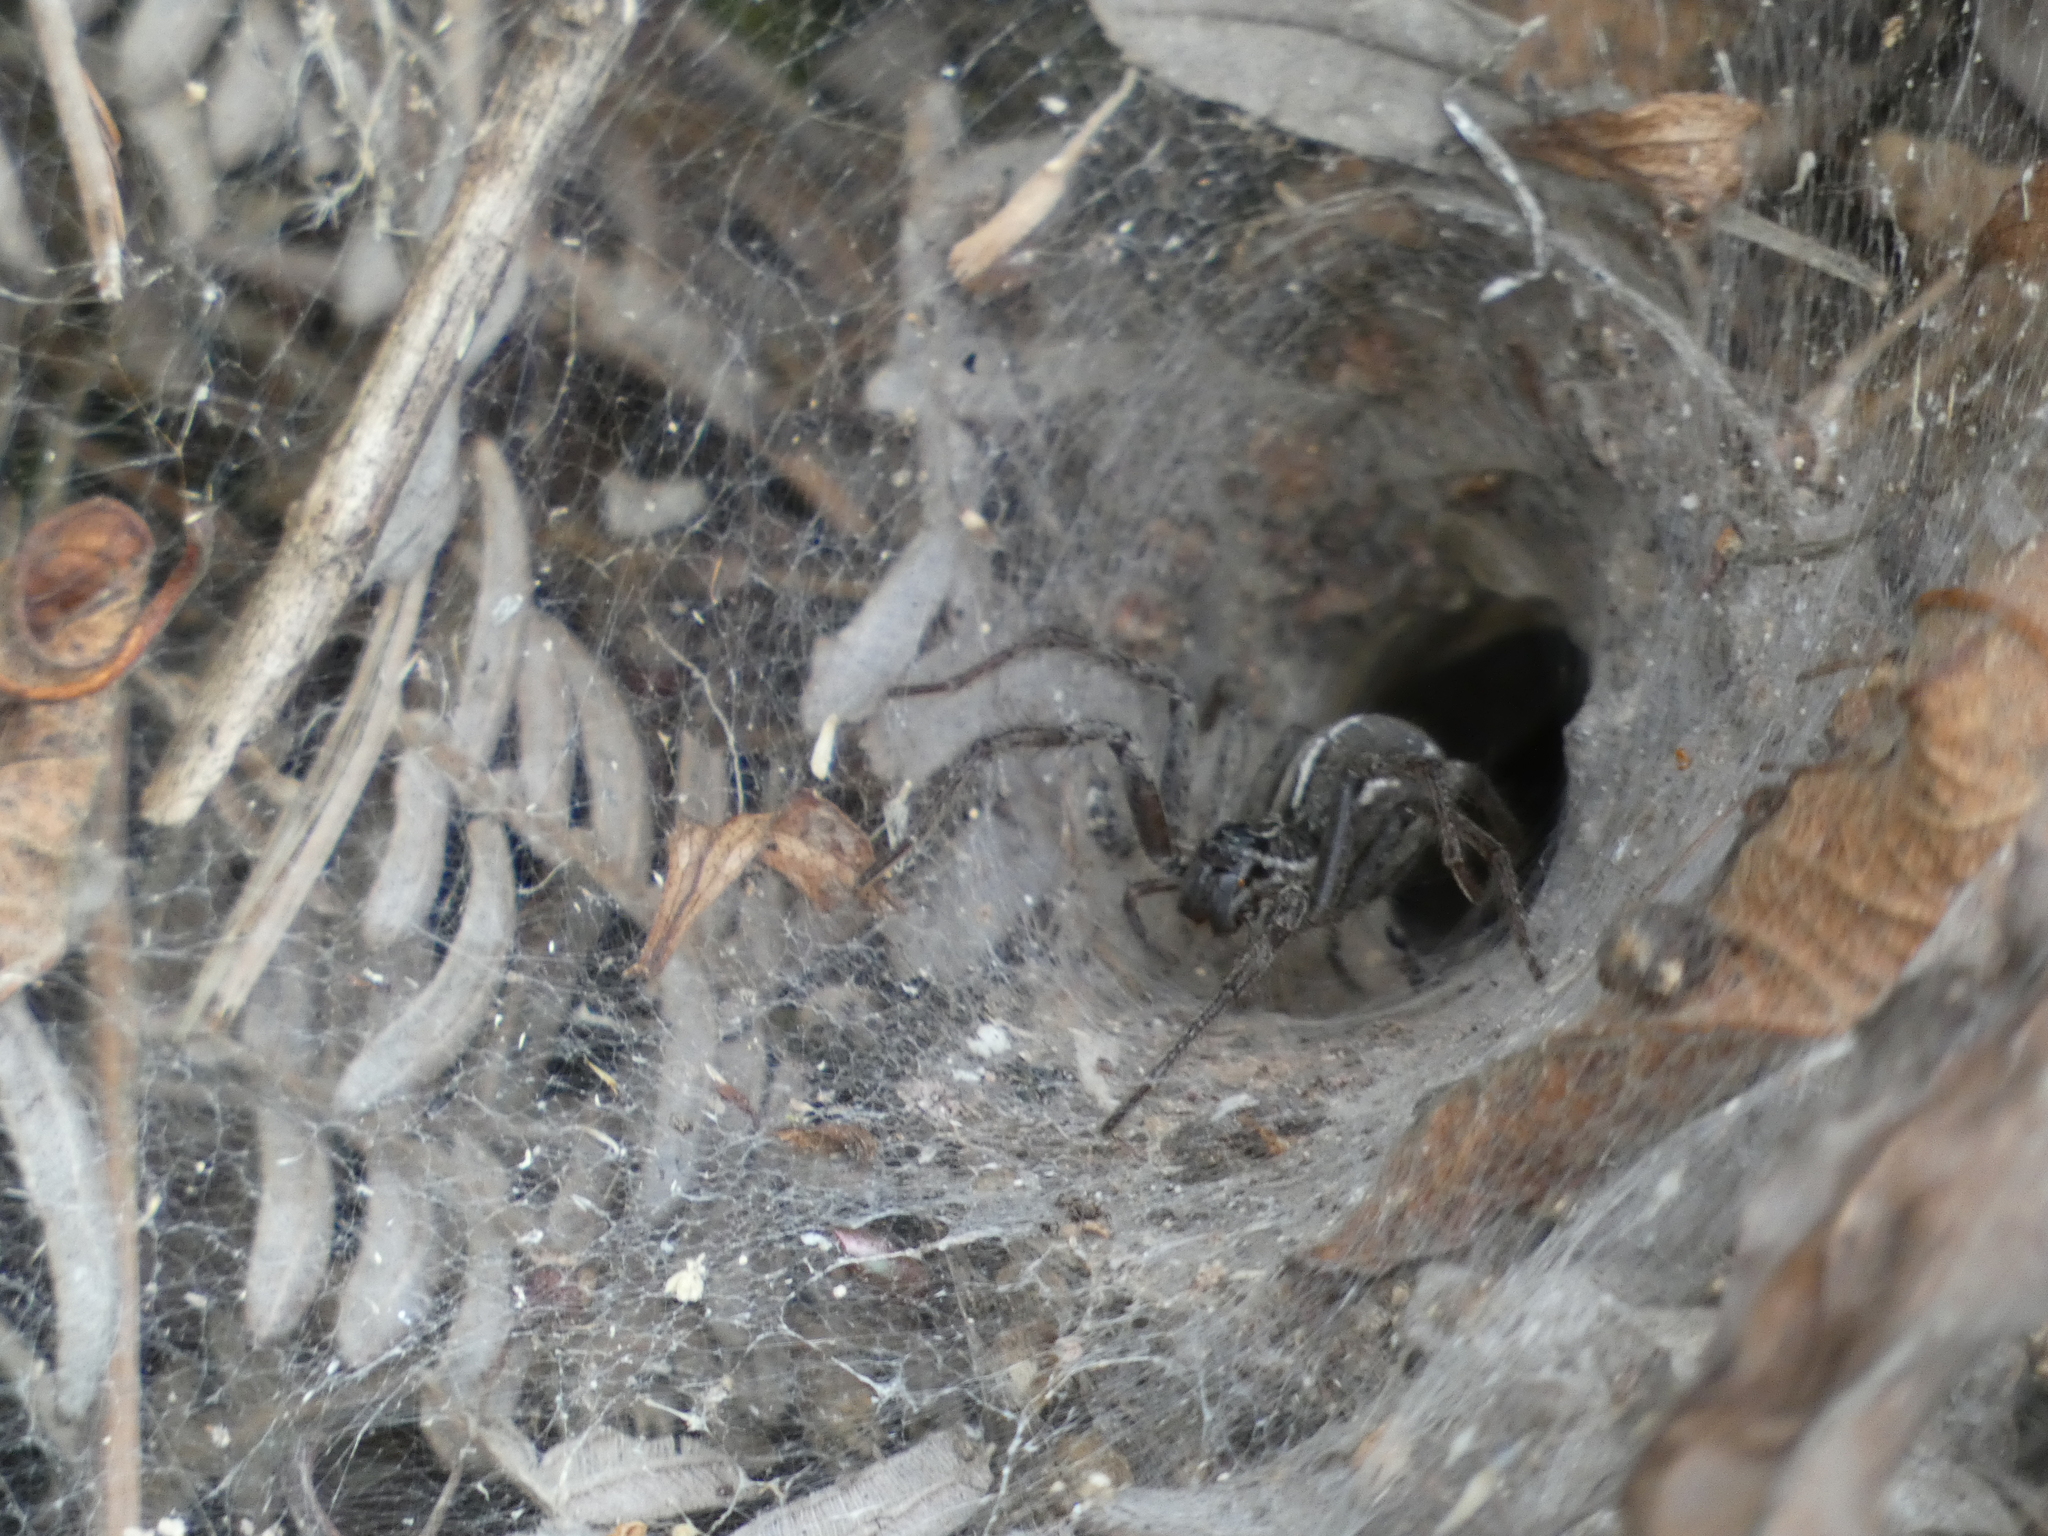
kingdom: Animalia
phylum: Arthropoda
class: Arachnida
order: Araneae
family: Lycosidae
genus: Aglaoctenus
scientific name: Aglaoctenus lagotis
